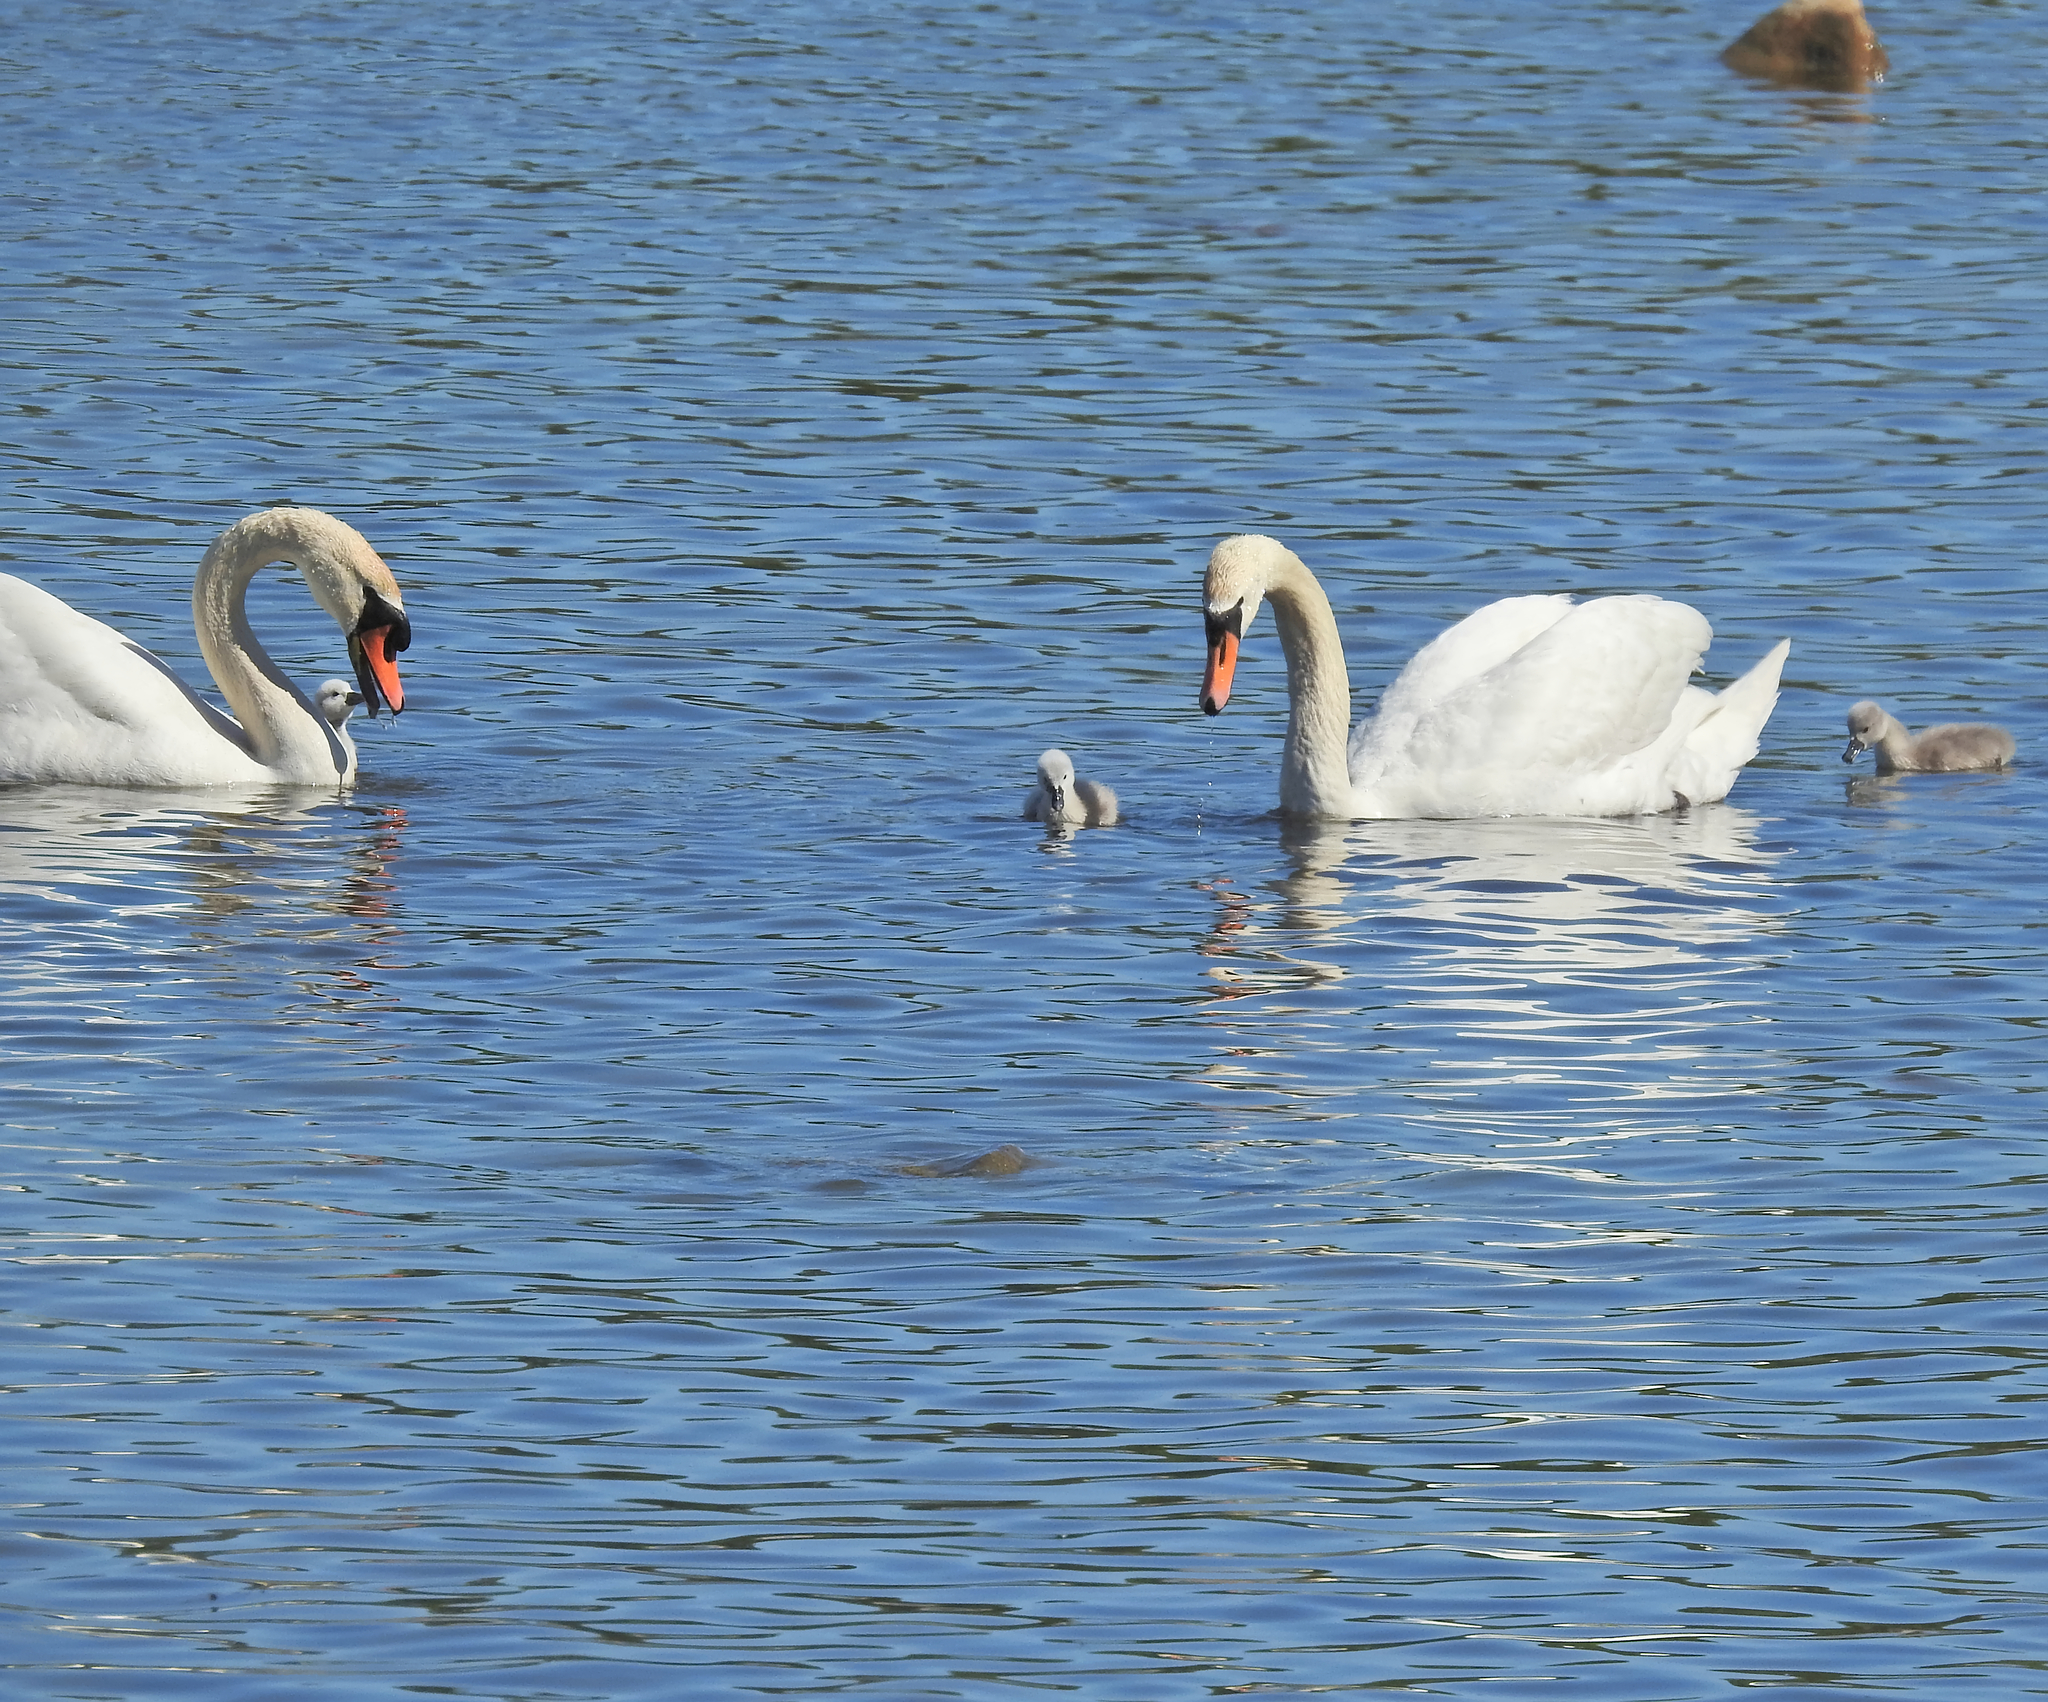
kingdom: Animalia
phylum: Chordata
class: Aves
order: Anseriformes
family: Anatidae
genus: Cygnus
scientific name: Cygnus olor
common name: Mute swan
